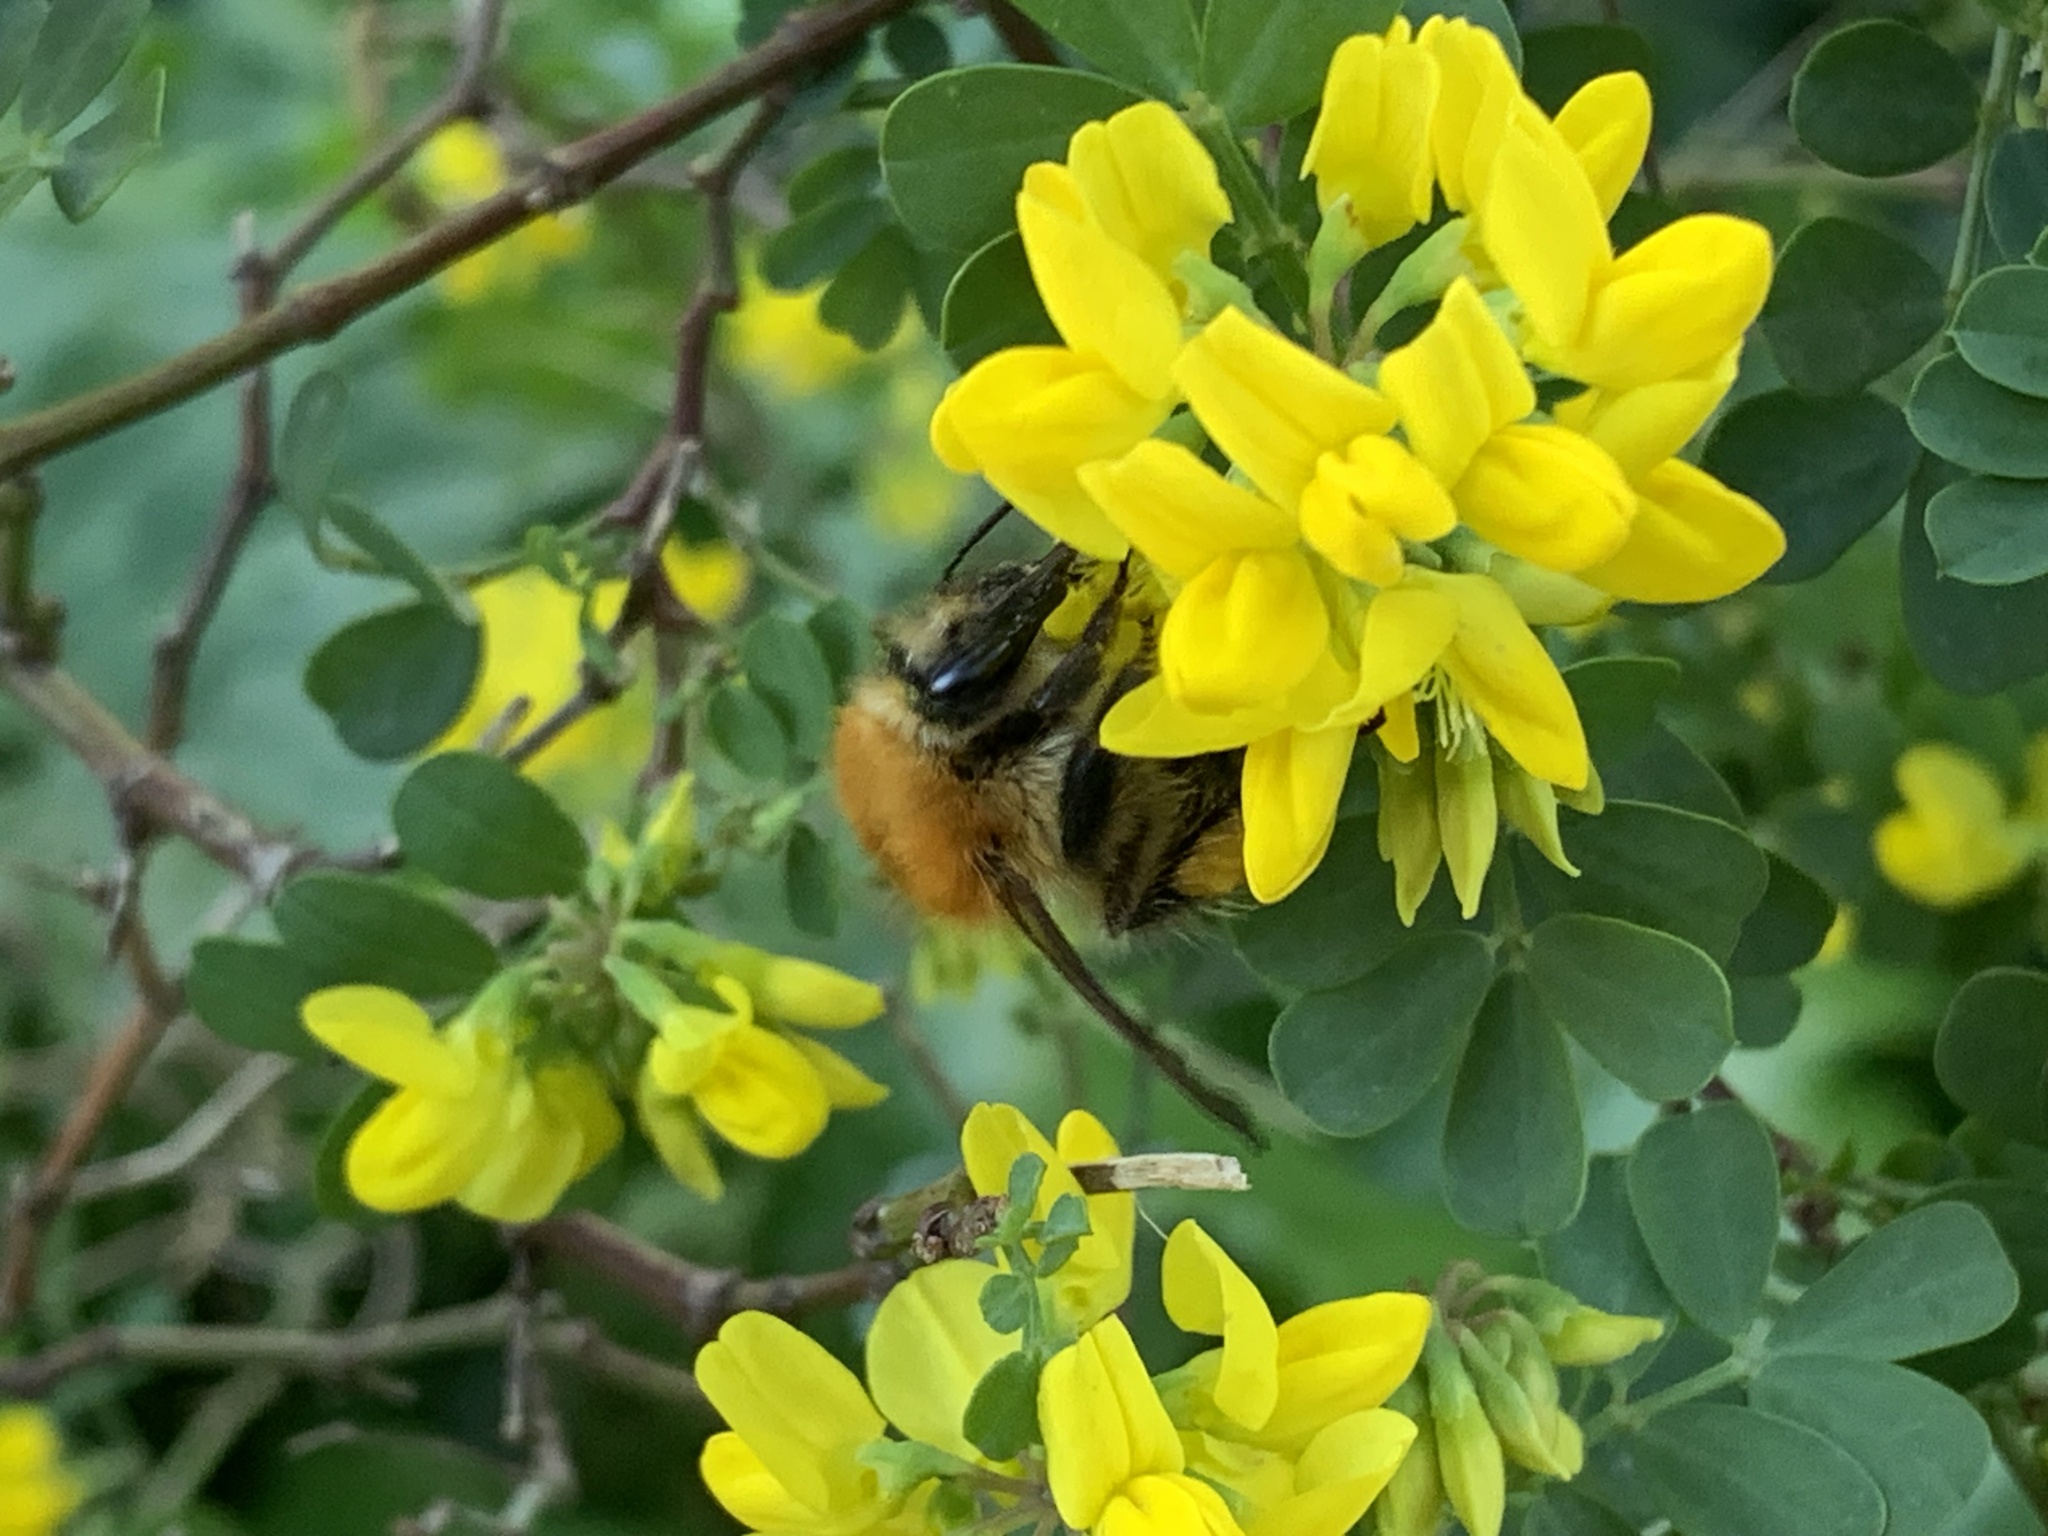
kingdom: Animalia
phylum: Arthropoda
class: Insecta
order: Hymenoptera
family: Apidae
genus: Bombus
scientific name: Bombus pascuorum
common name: Common carder bee
